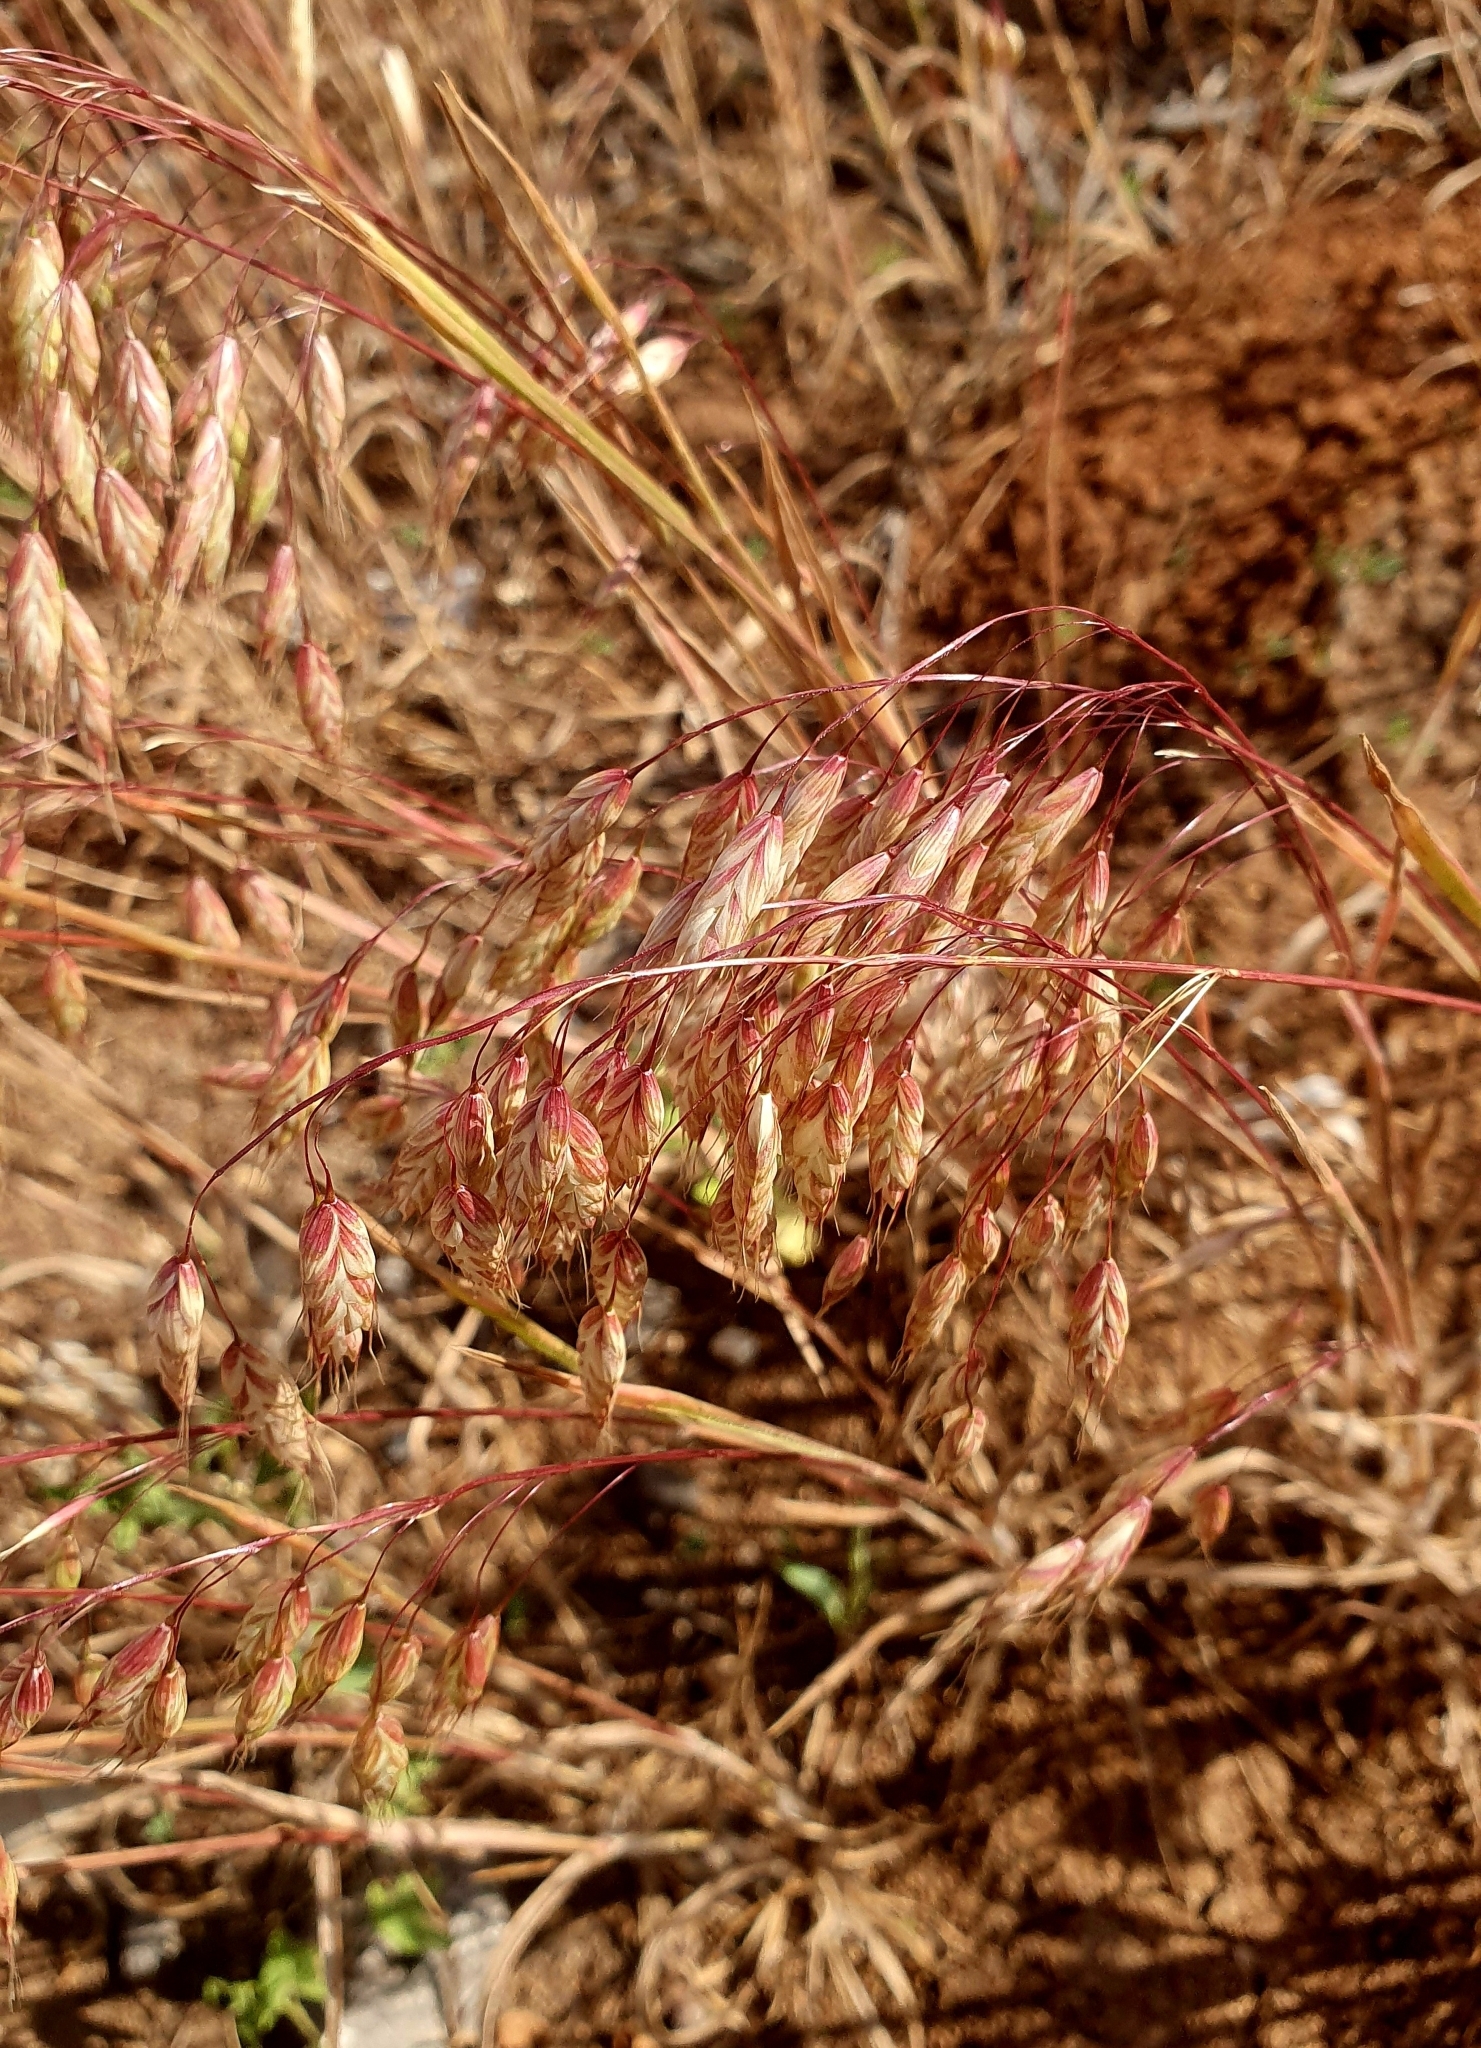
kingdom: Plantae
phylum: Tracheophyta
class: Liliopsida
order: Poales
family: Poaceae
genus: Bromus
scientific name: Bromus squarrosus
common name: Corn brome
